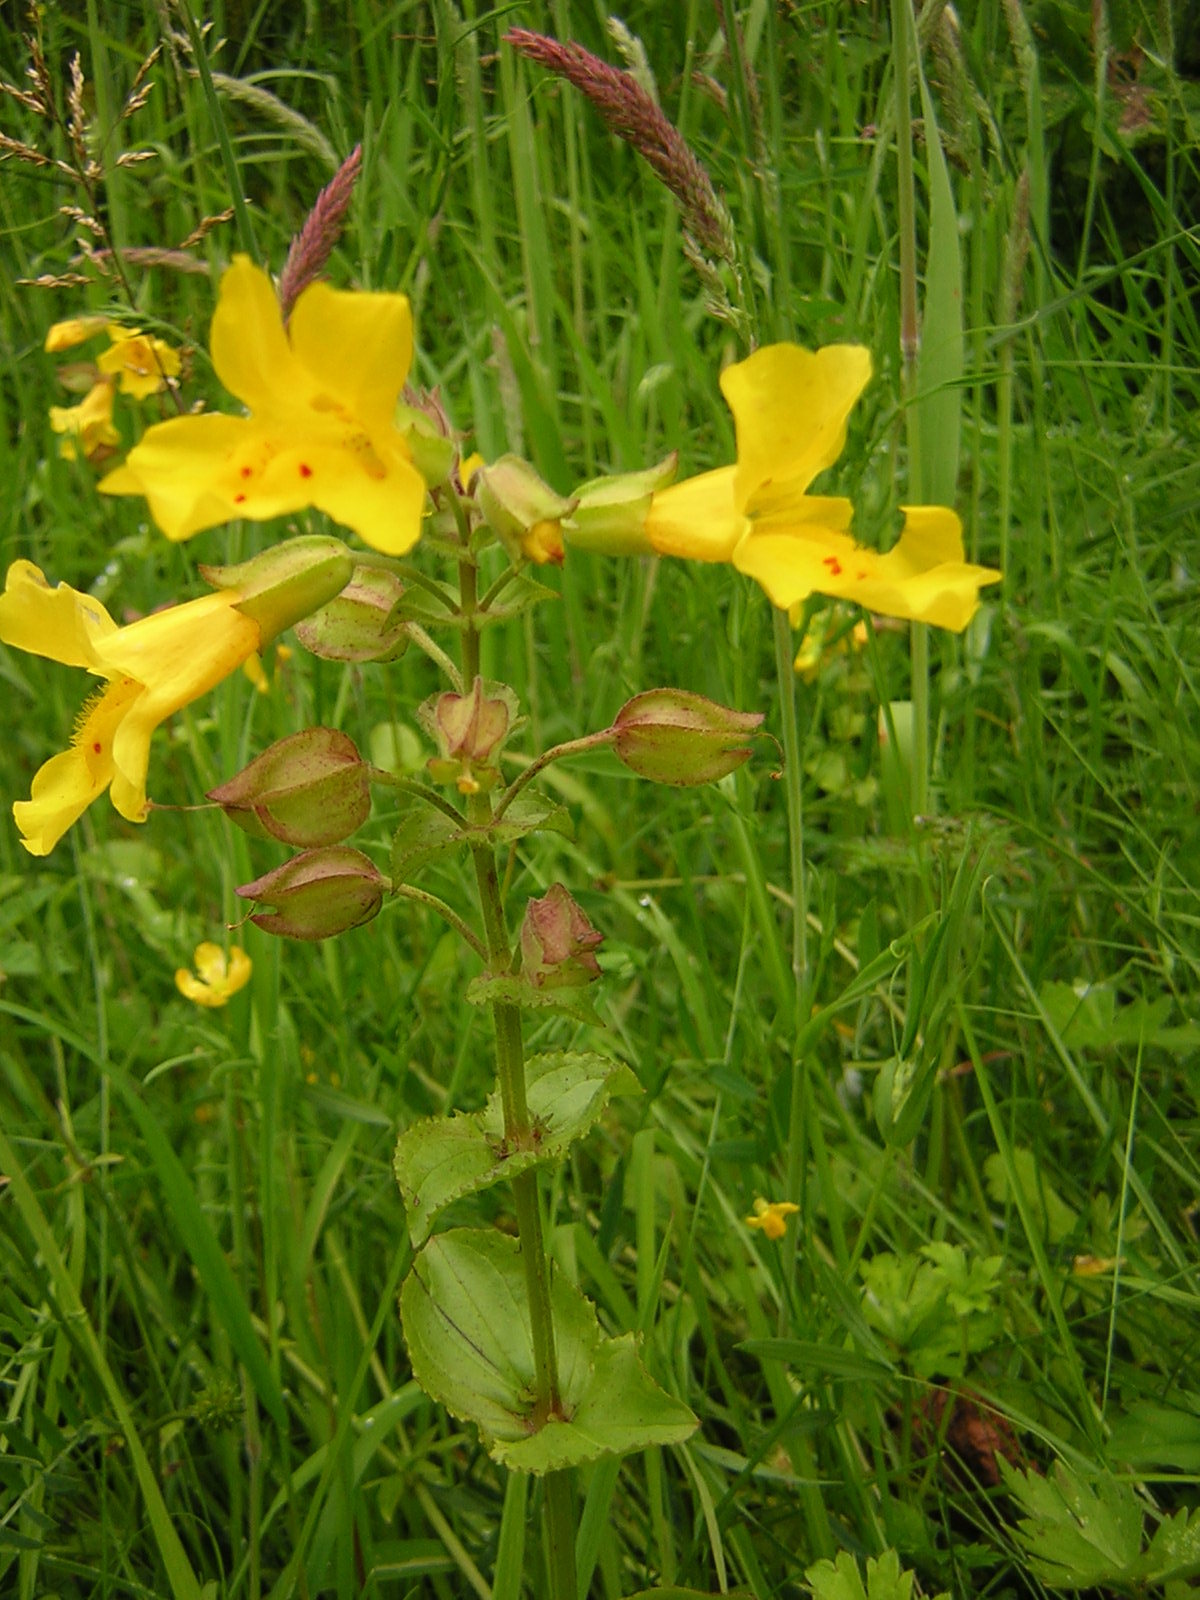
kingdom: Plantae
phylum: Tracheophyta
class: Magnoliopsida
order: Lamiales
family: Phrymaceae
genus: Erythranthe
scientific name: Erythranthe guttata
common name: Monkeyflower
